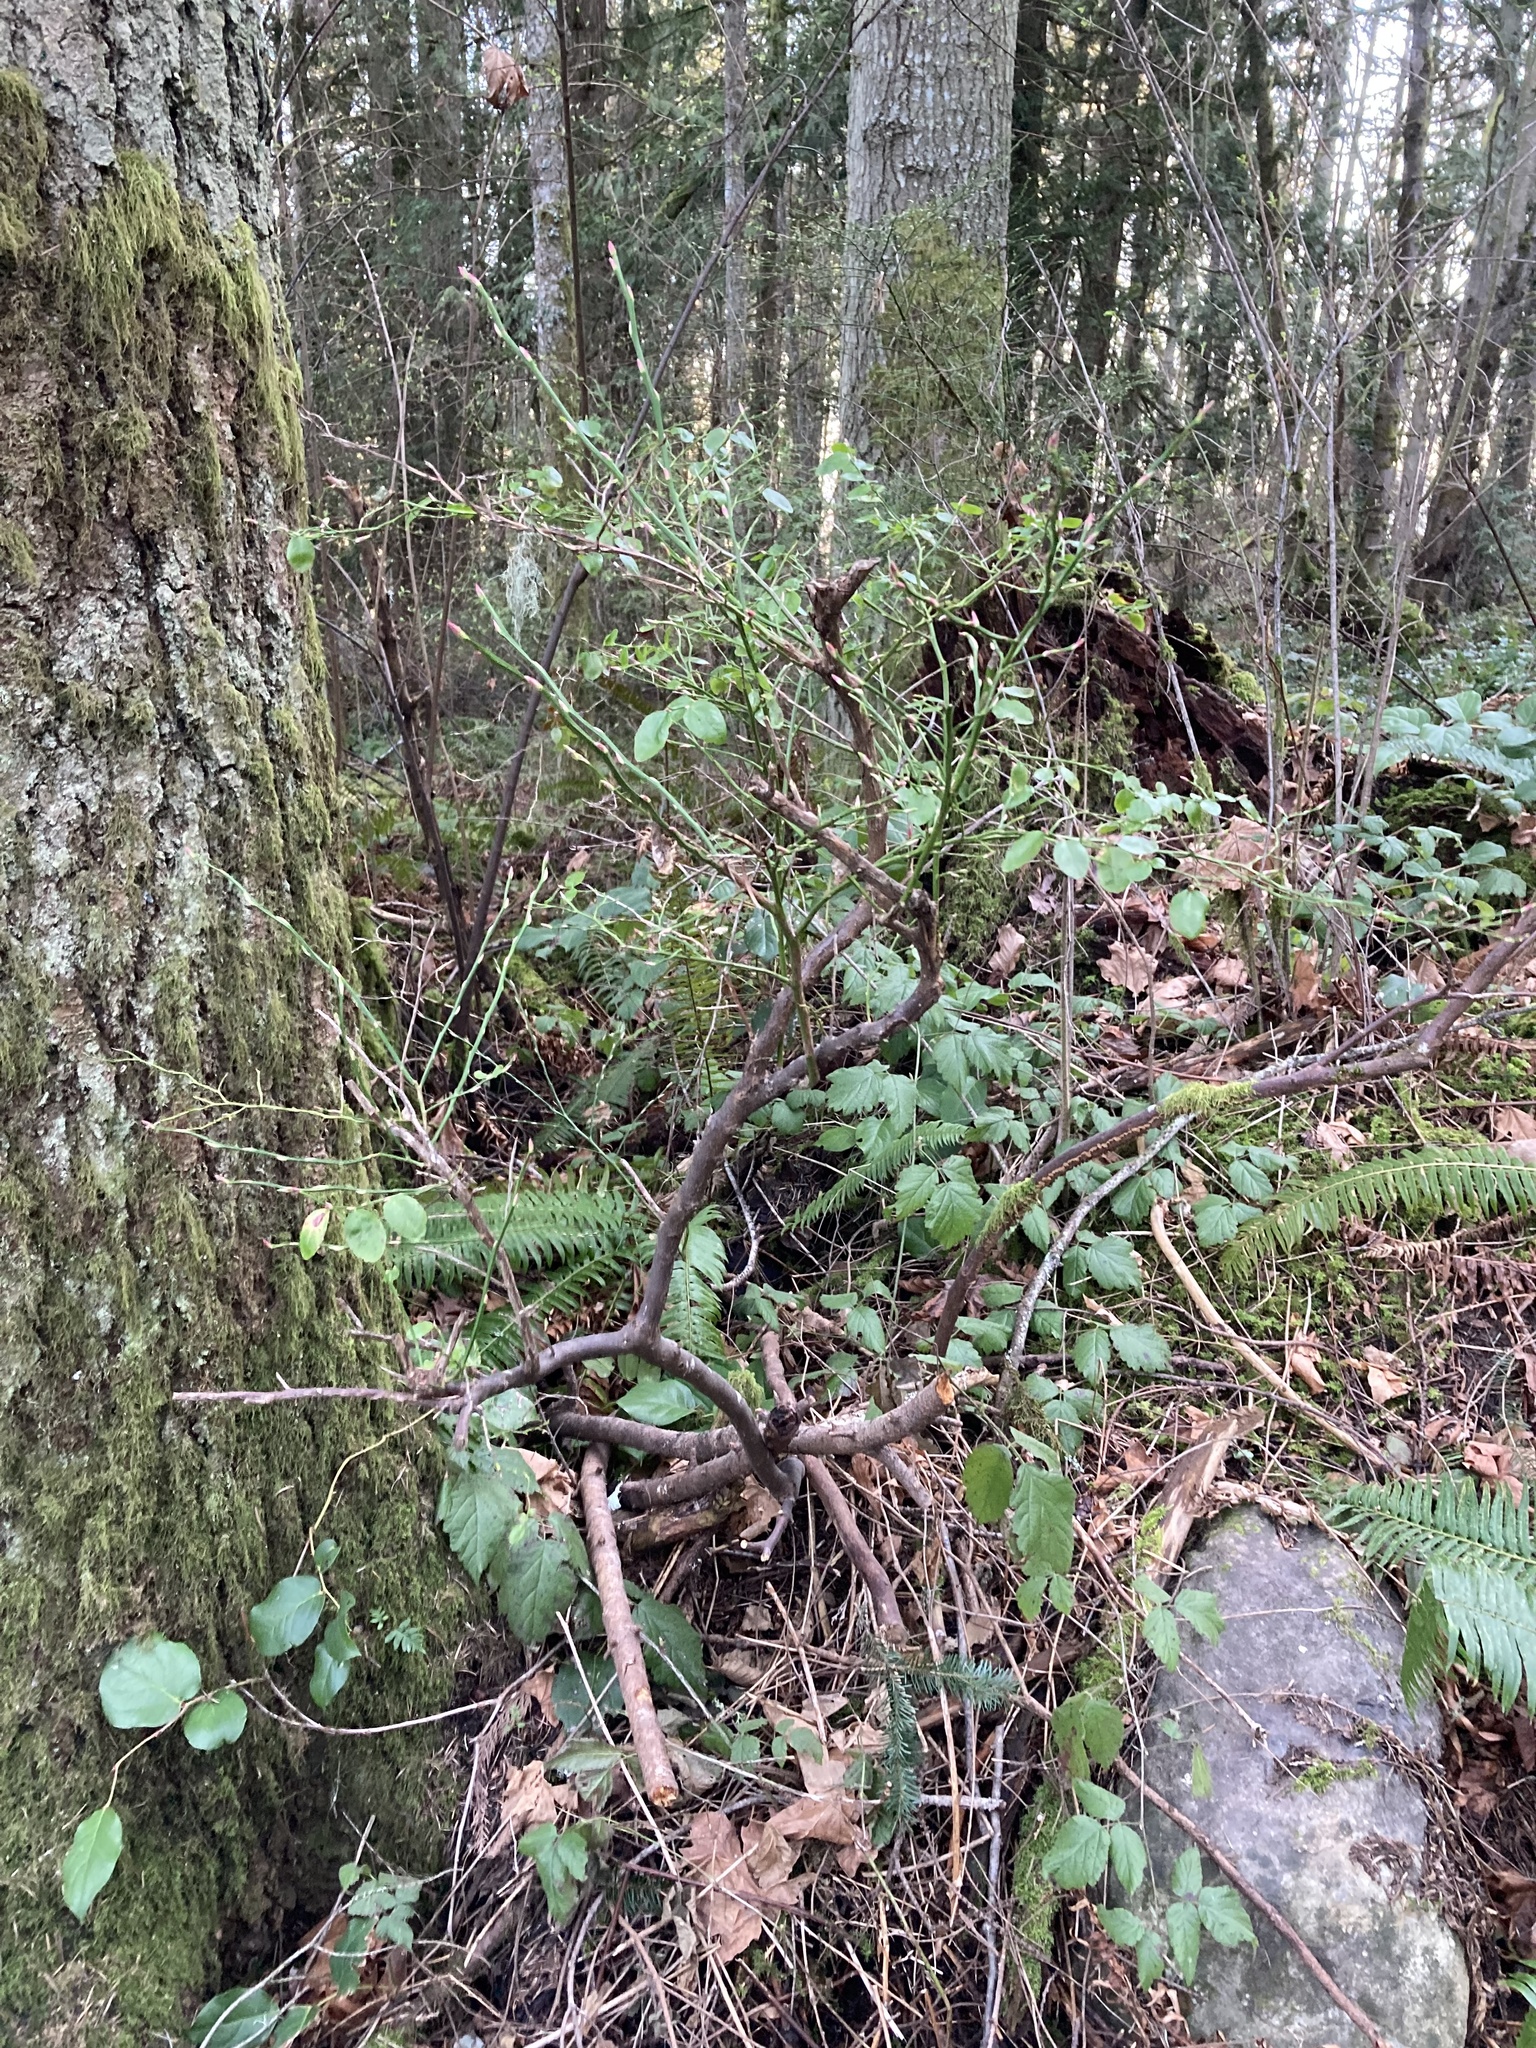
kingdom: Plantae
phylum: Tracheophyta
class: Magnoliopsida
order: Ericales
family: Ericaceae
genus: Vaccinium
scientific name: Vaccinium parvifolium
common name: Red-huckleberry
